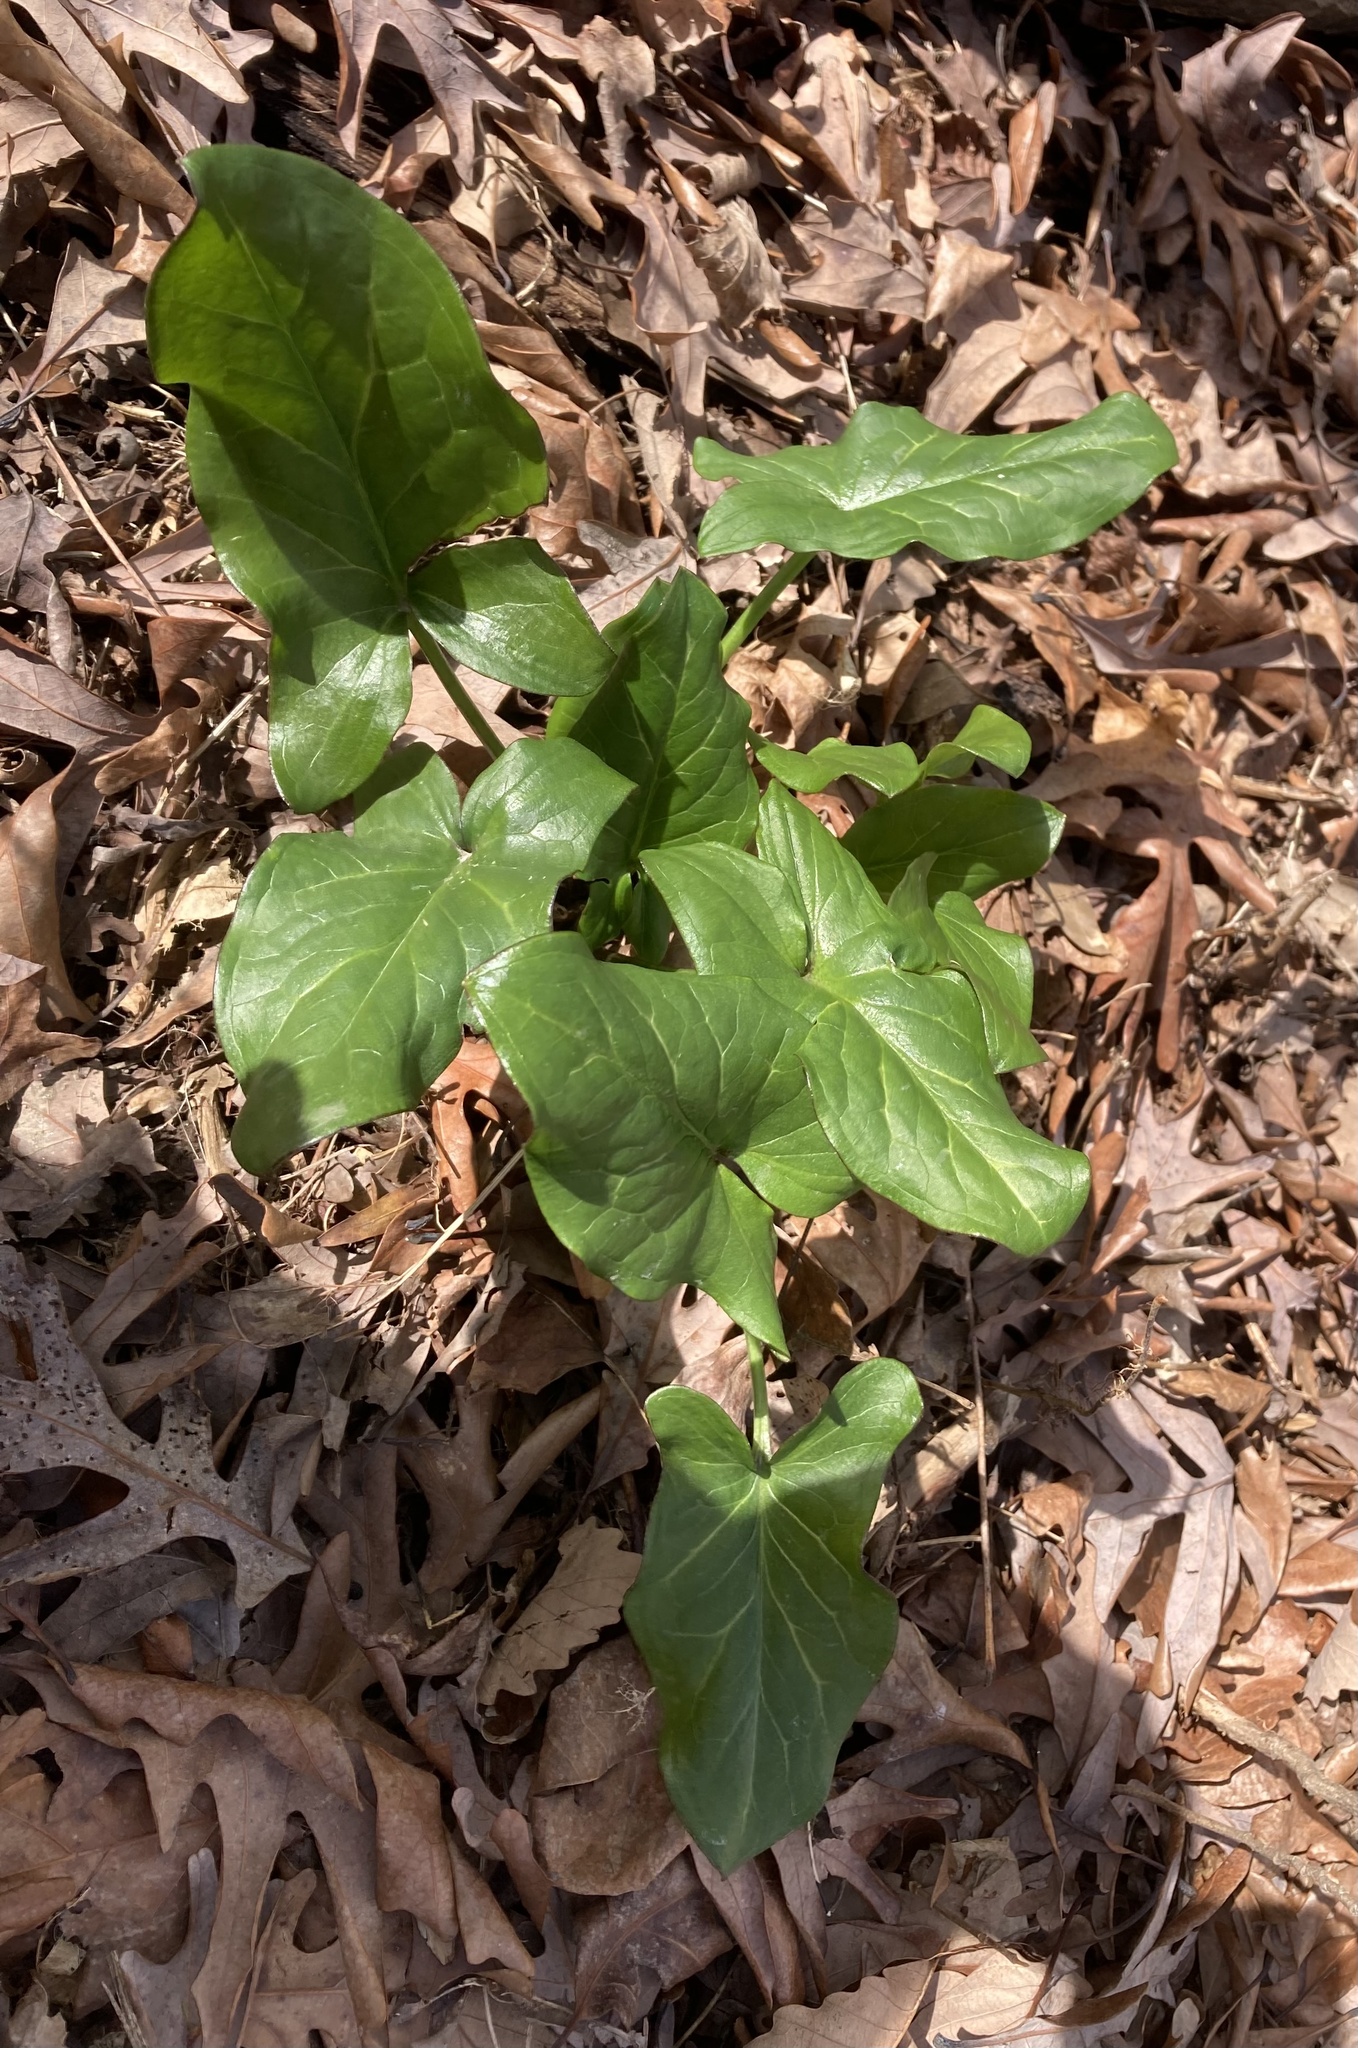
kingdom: Plantae
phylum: Tracheophyta
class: Liliopsida
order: Alismatales
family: Araceae
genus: Arum
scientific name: Arum italicum
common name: Italian lords-and-ladies
